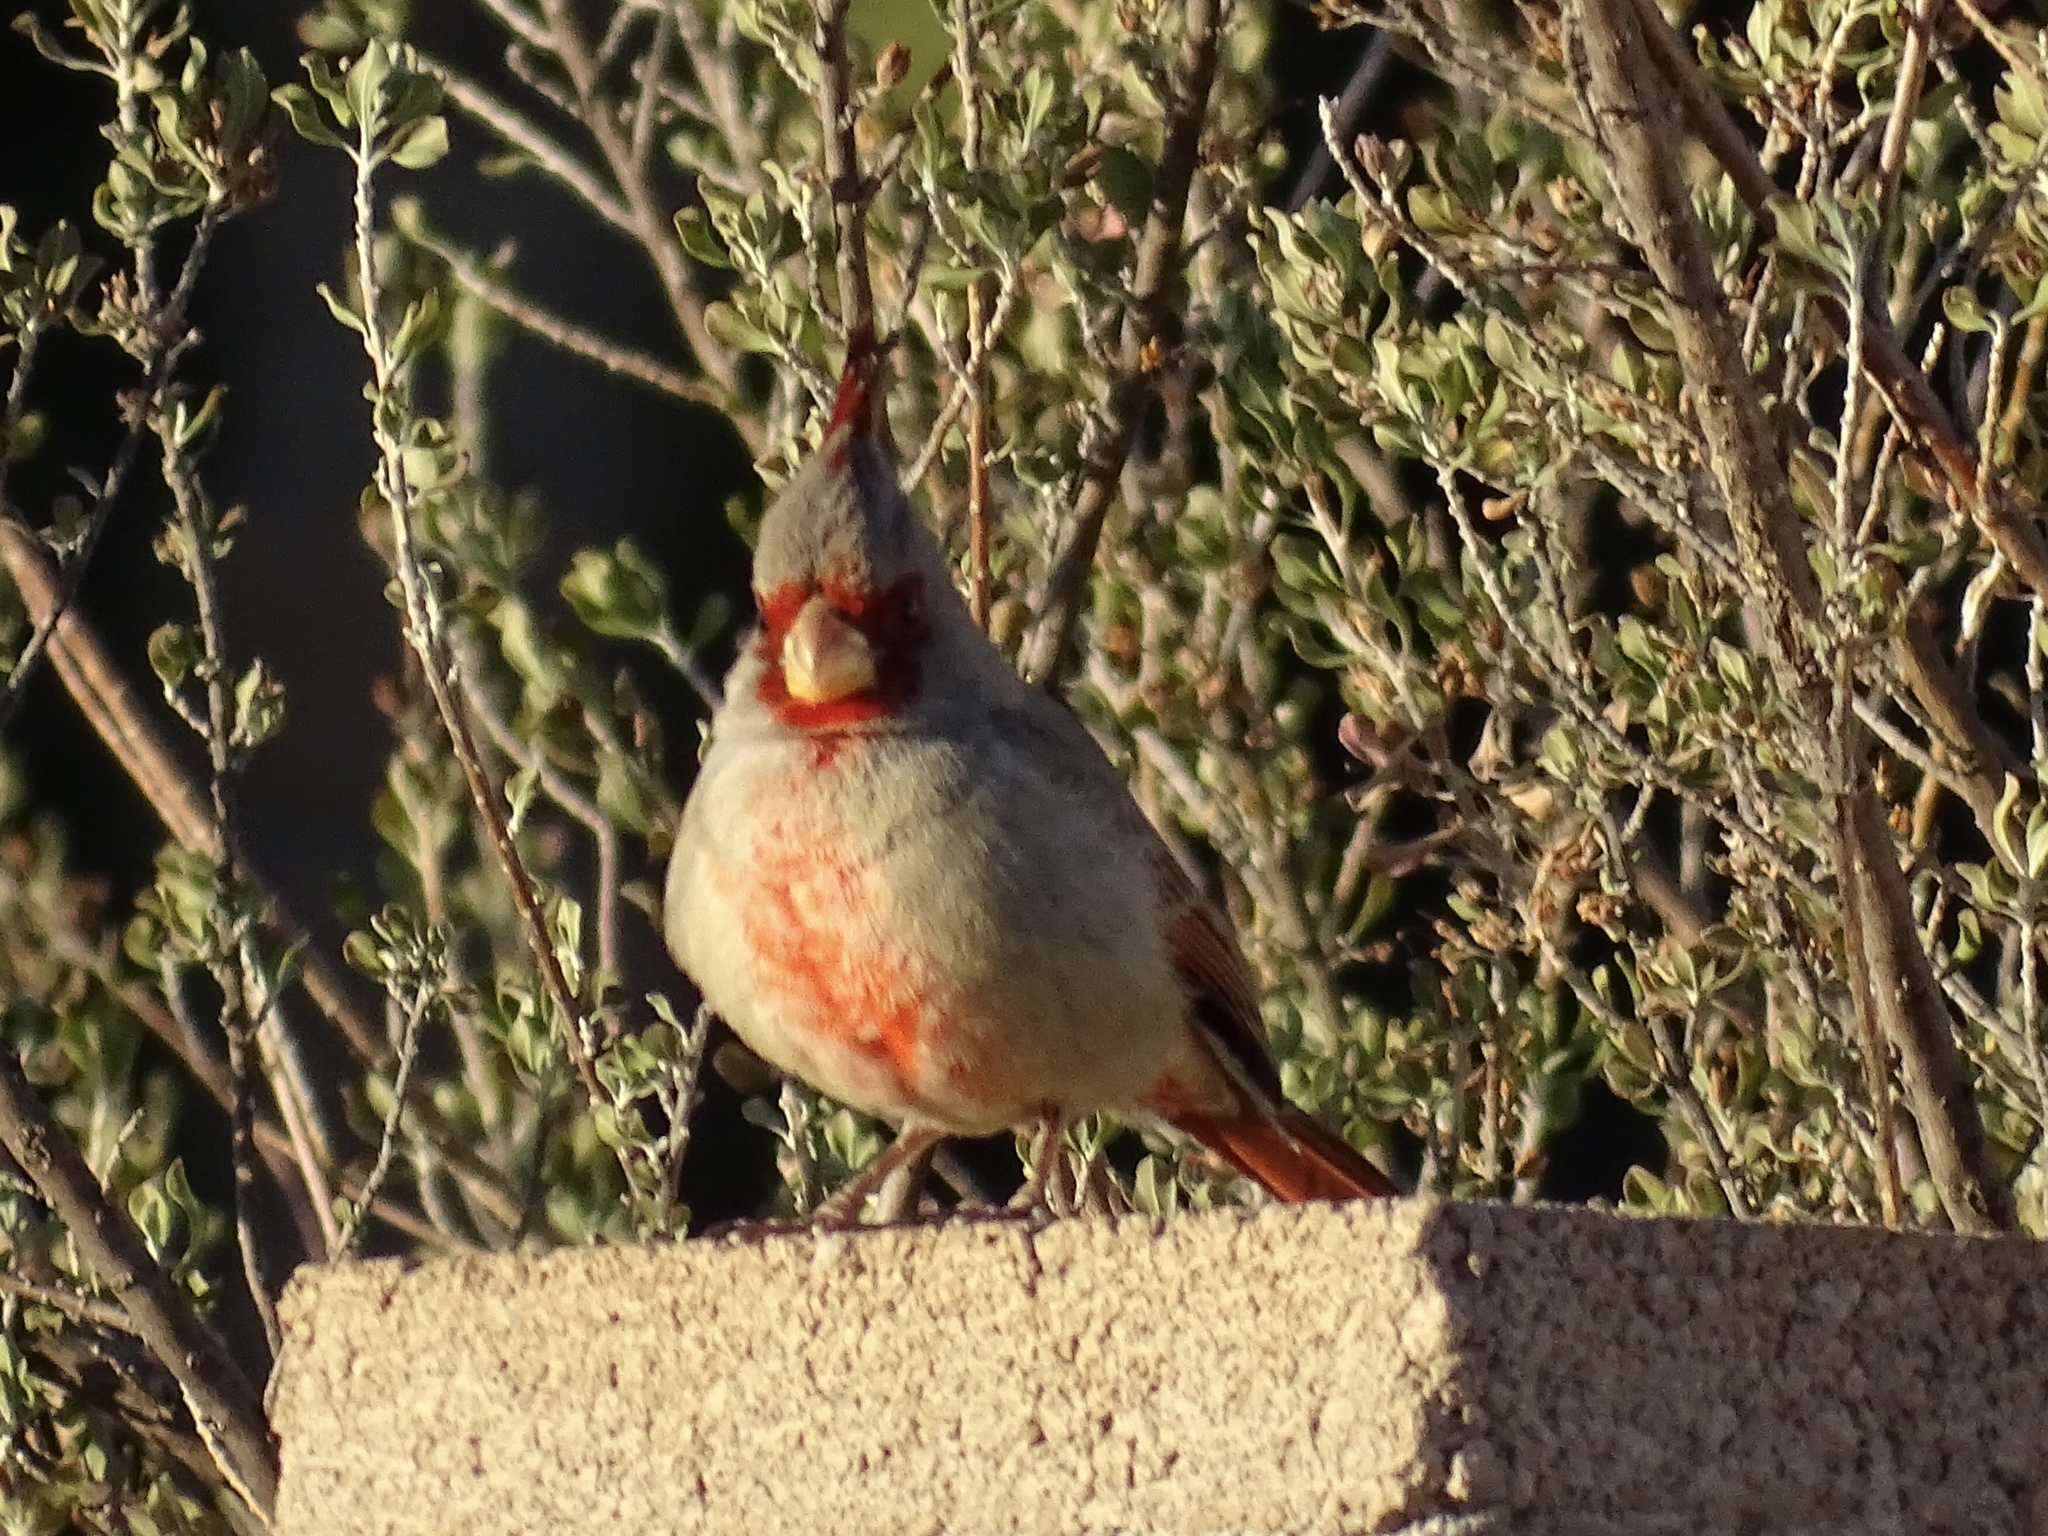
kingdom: Animalia
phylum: Chordata
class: Aves
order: Passeriformes
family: Cardinalidae
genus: Cardinalis
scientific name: Cardinalis sinuatus
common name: Pyrrhuloxia
